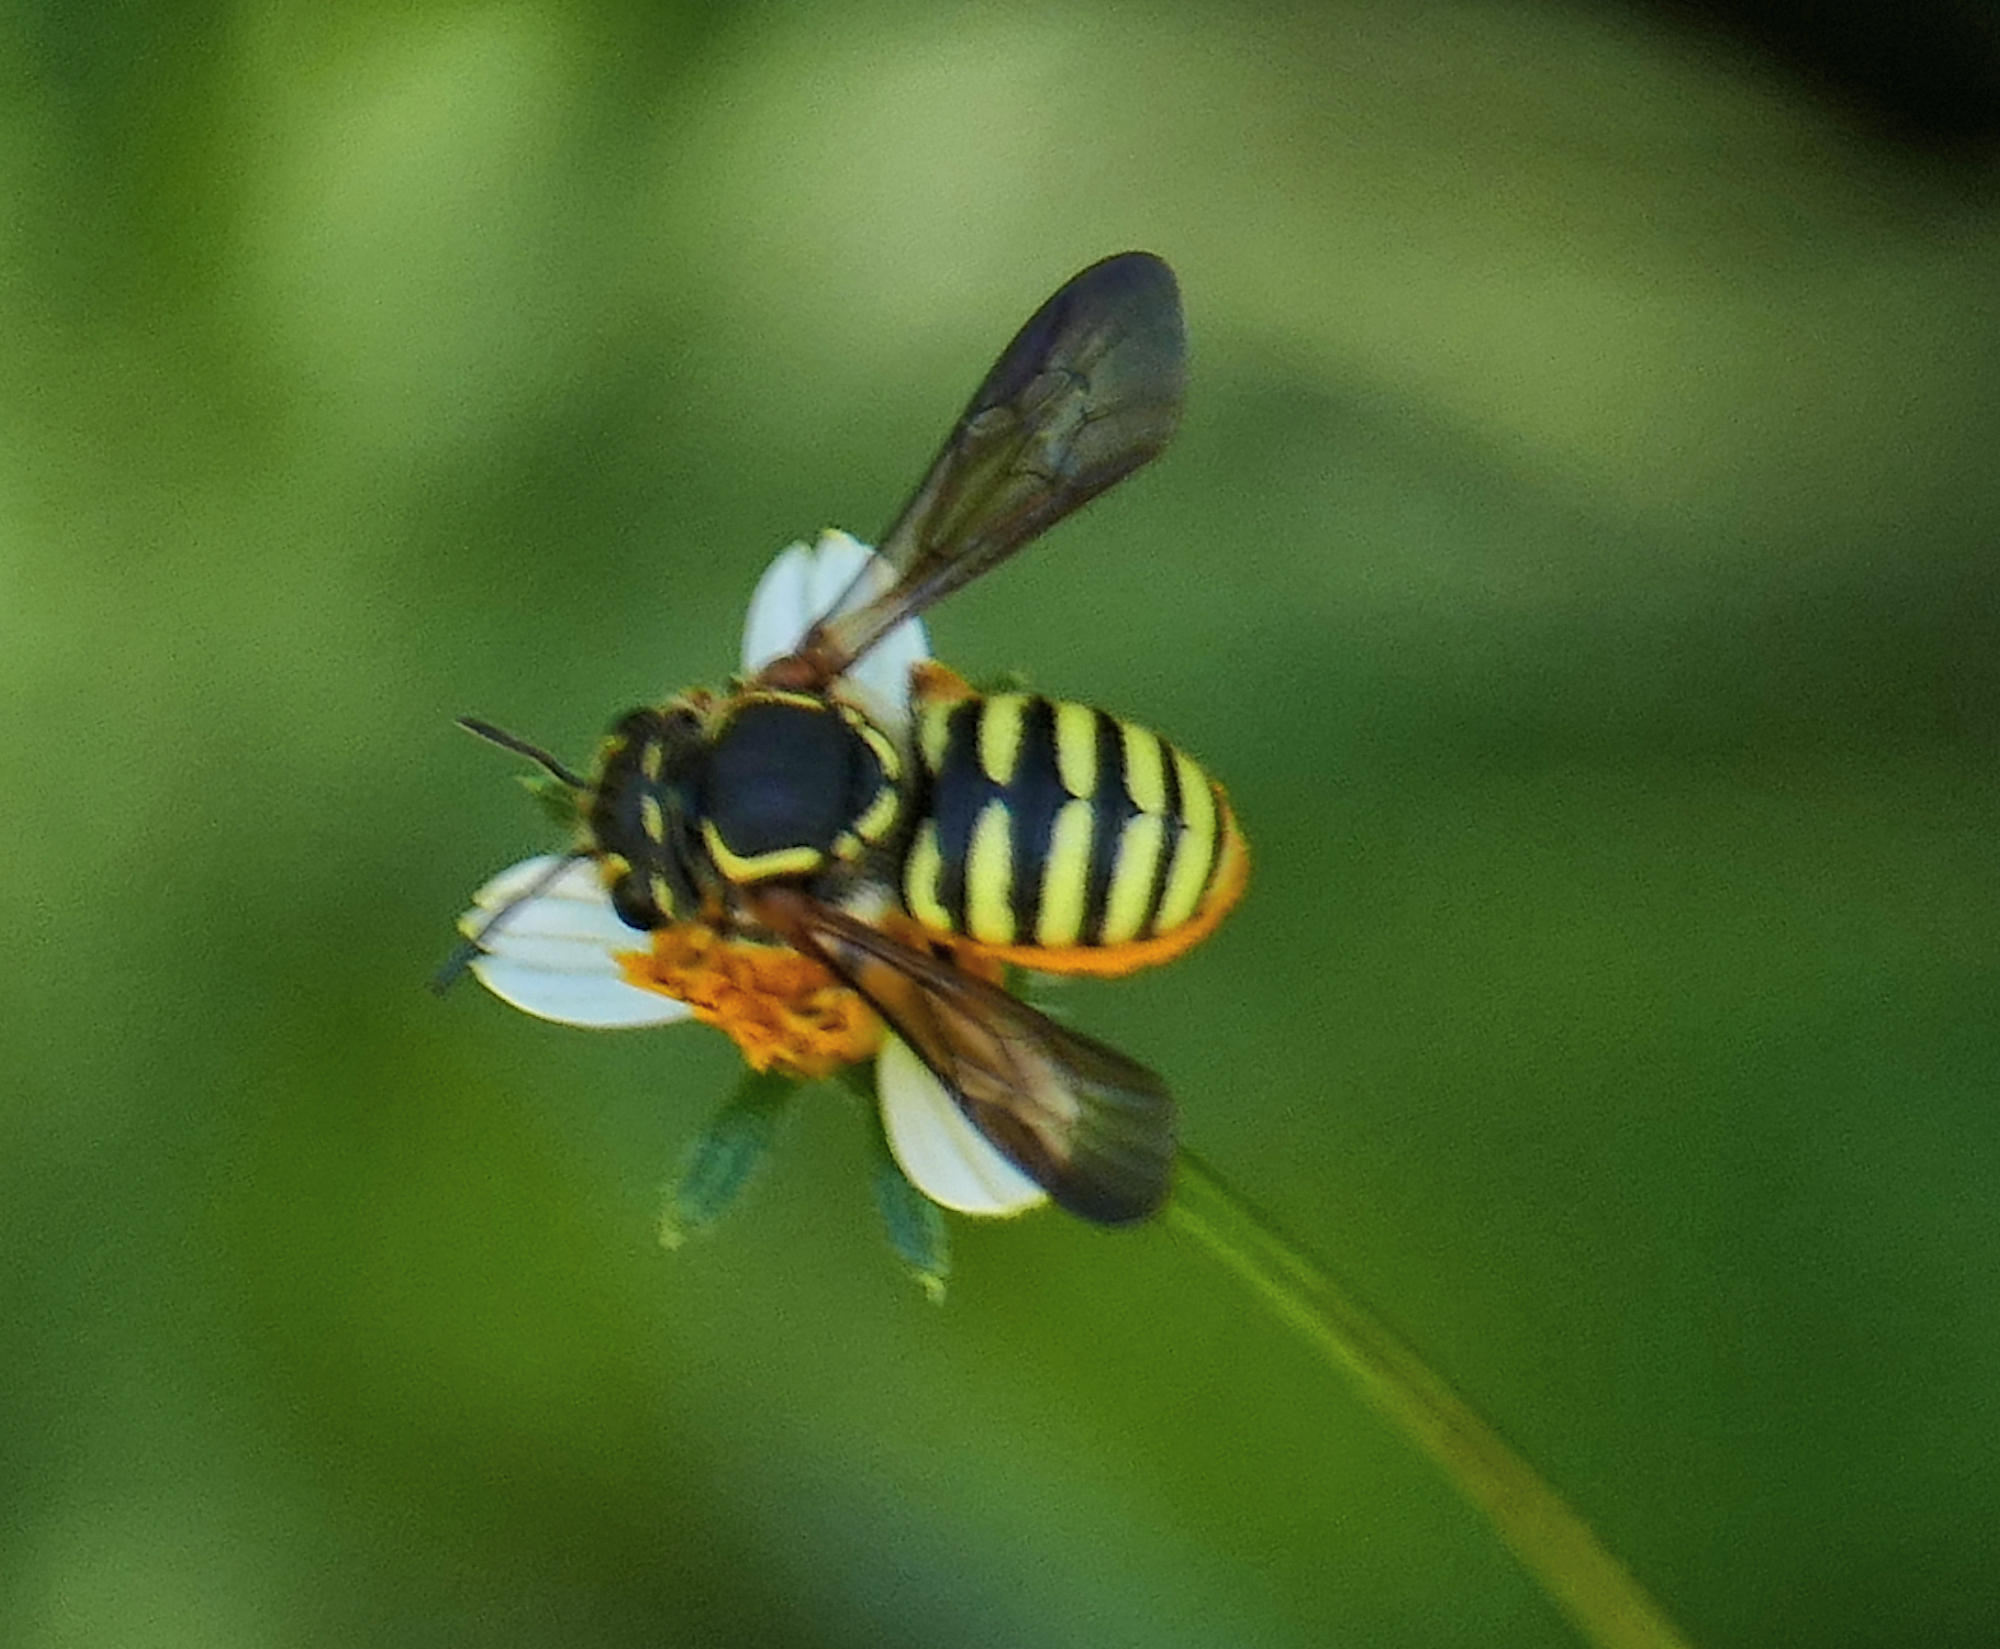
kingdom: Animalia
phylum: Arthropoda
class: Insecta
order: Hymenoptera
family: Megachilidae
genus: Paranthidium
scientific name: Paranthidium jugatorium
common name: Sunflower burrowing-resin bee
